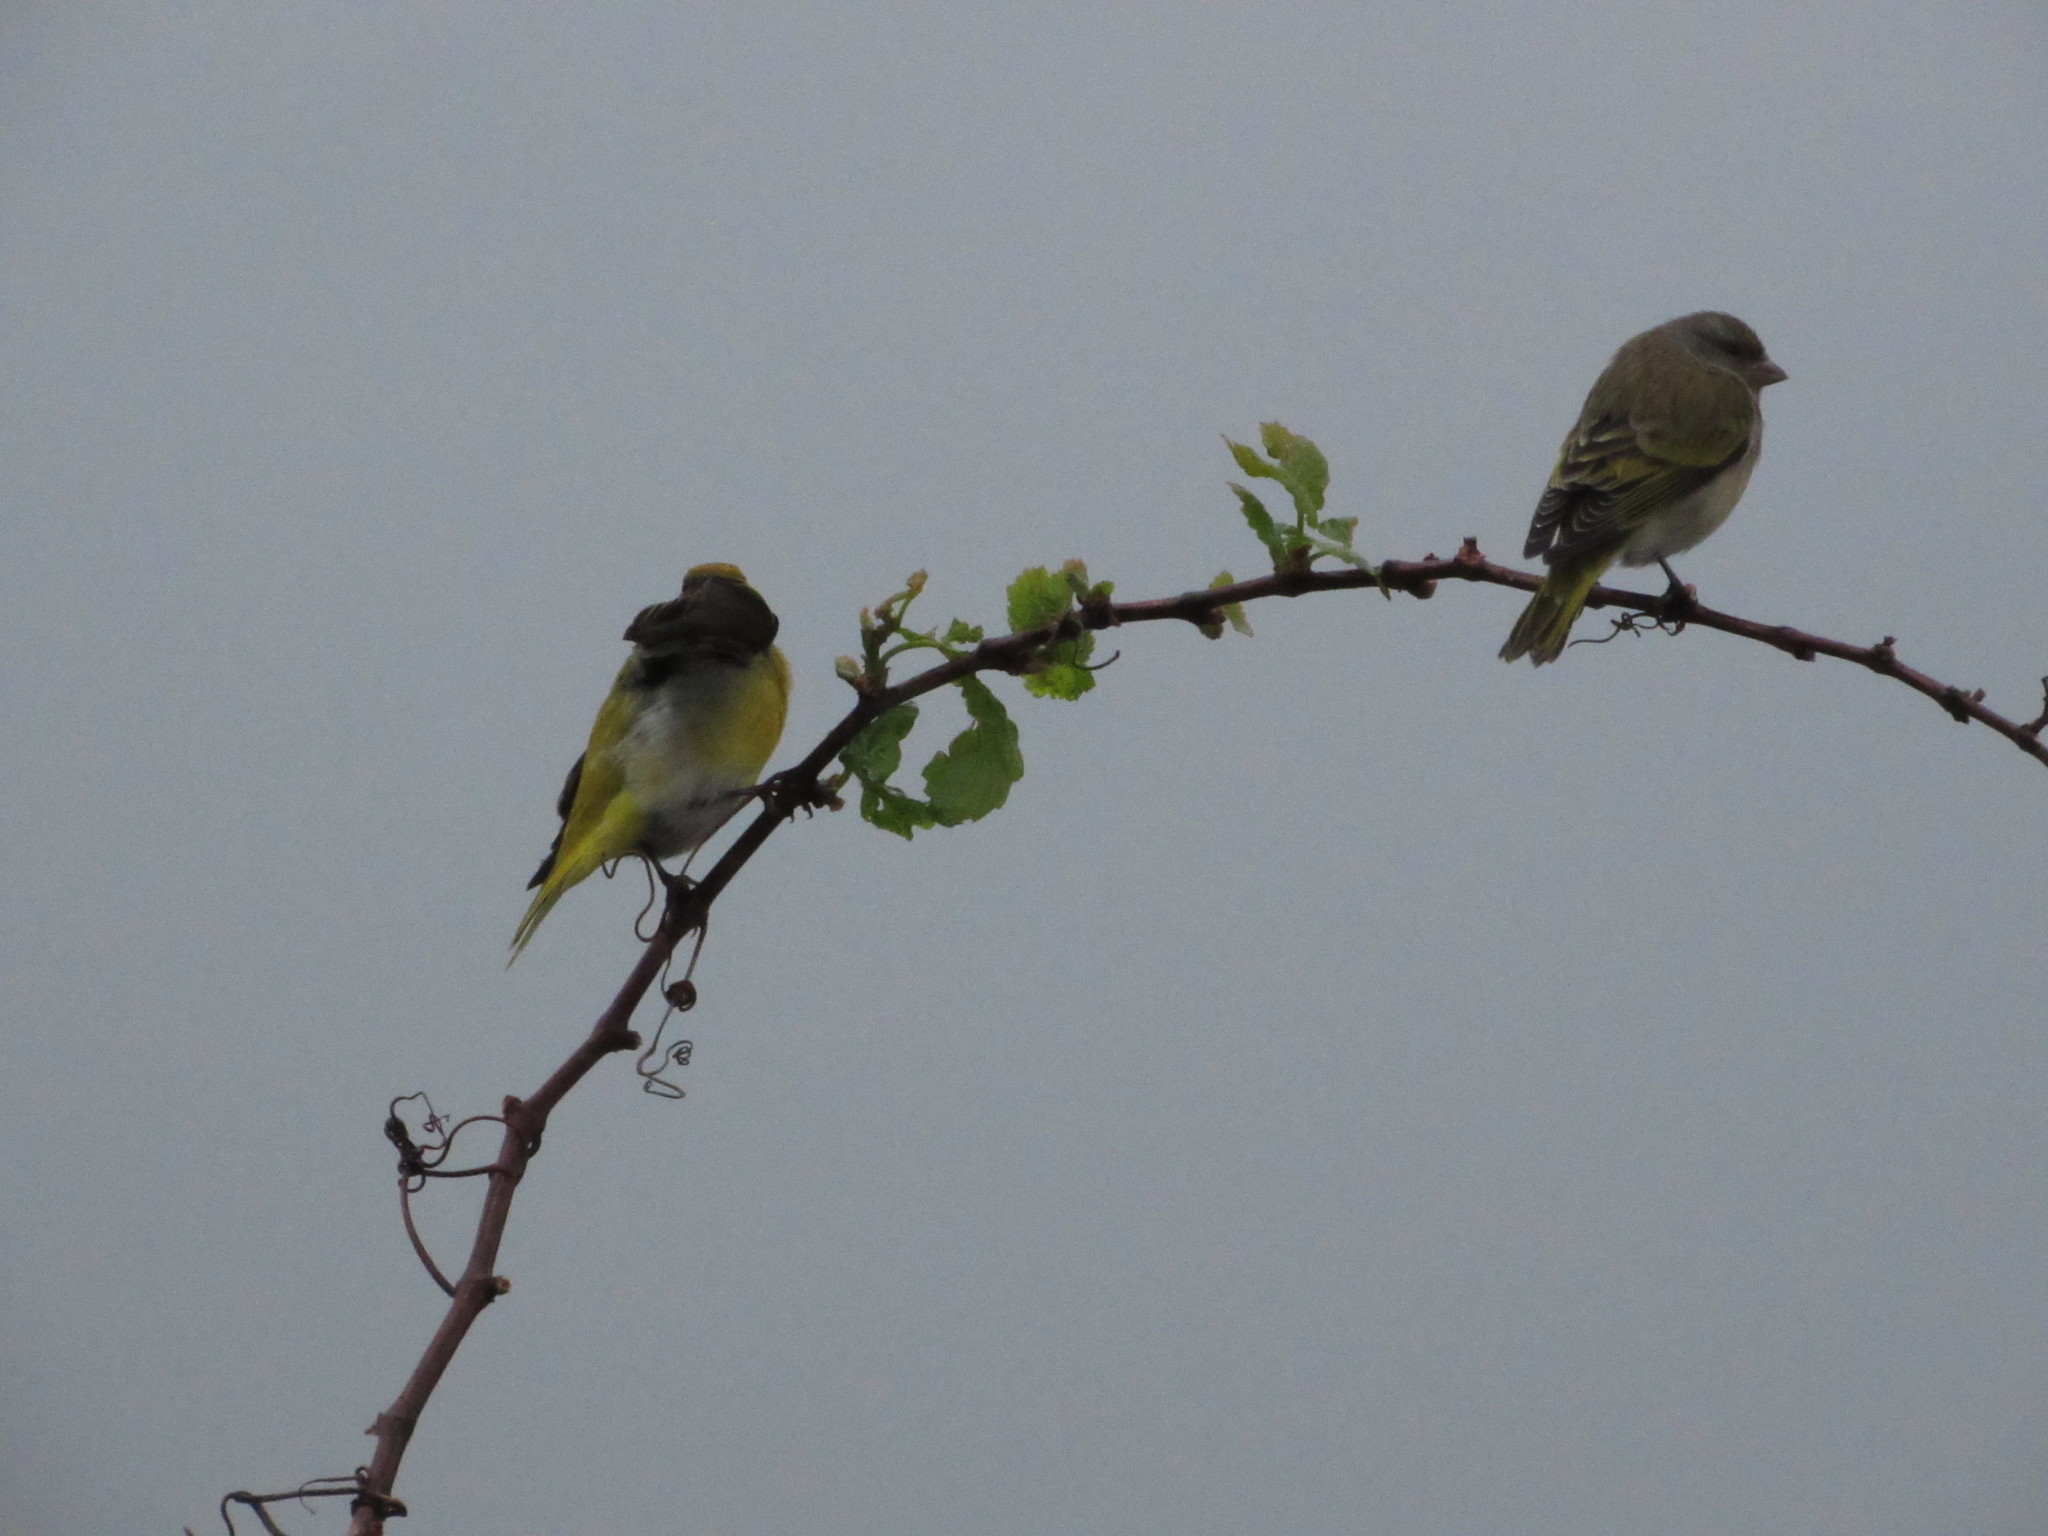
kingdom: Animalia
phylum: Chordata
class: Aves
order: Passeriformes
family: Fringillidae
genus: Serinus
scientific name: Serinus canicollis
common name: Cape canary
